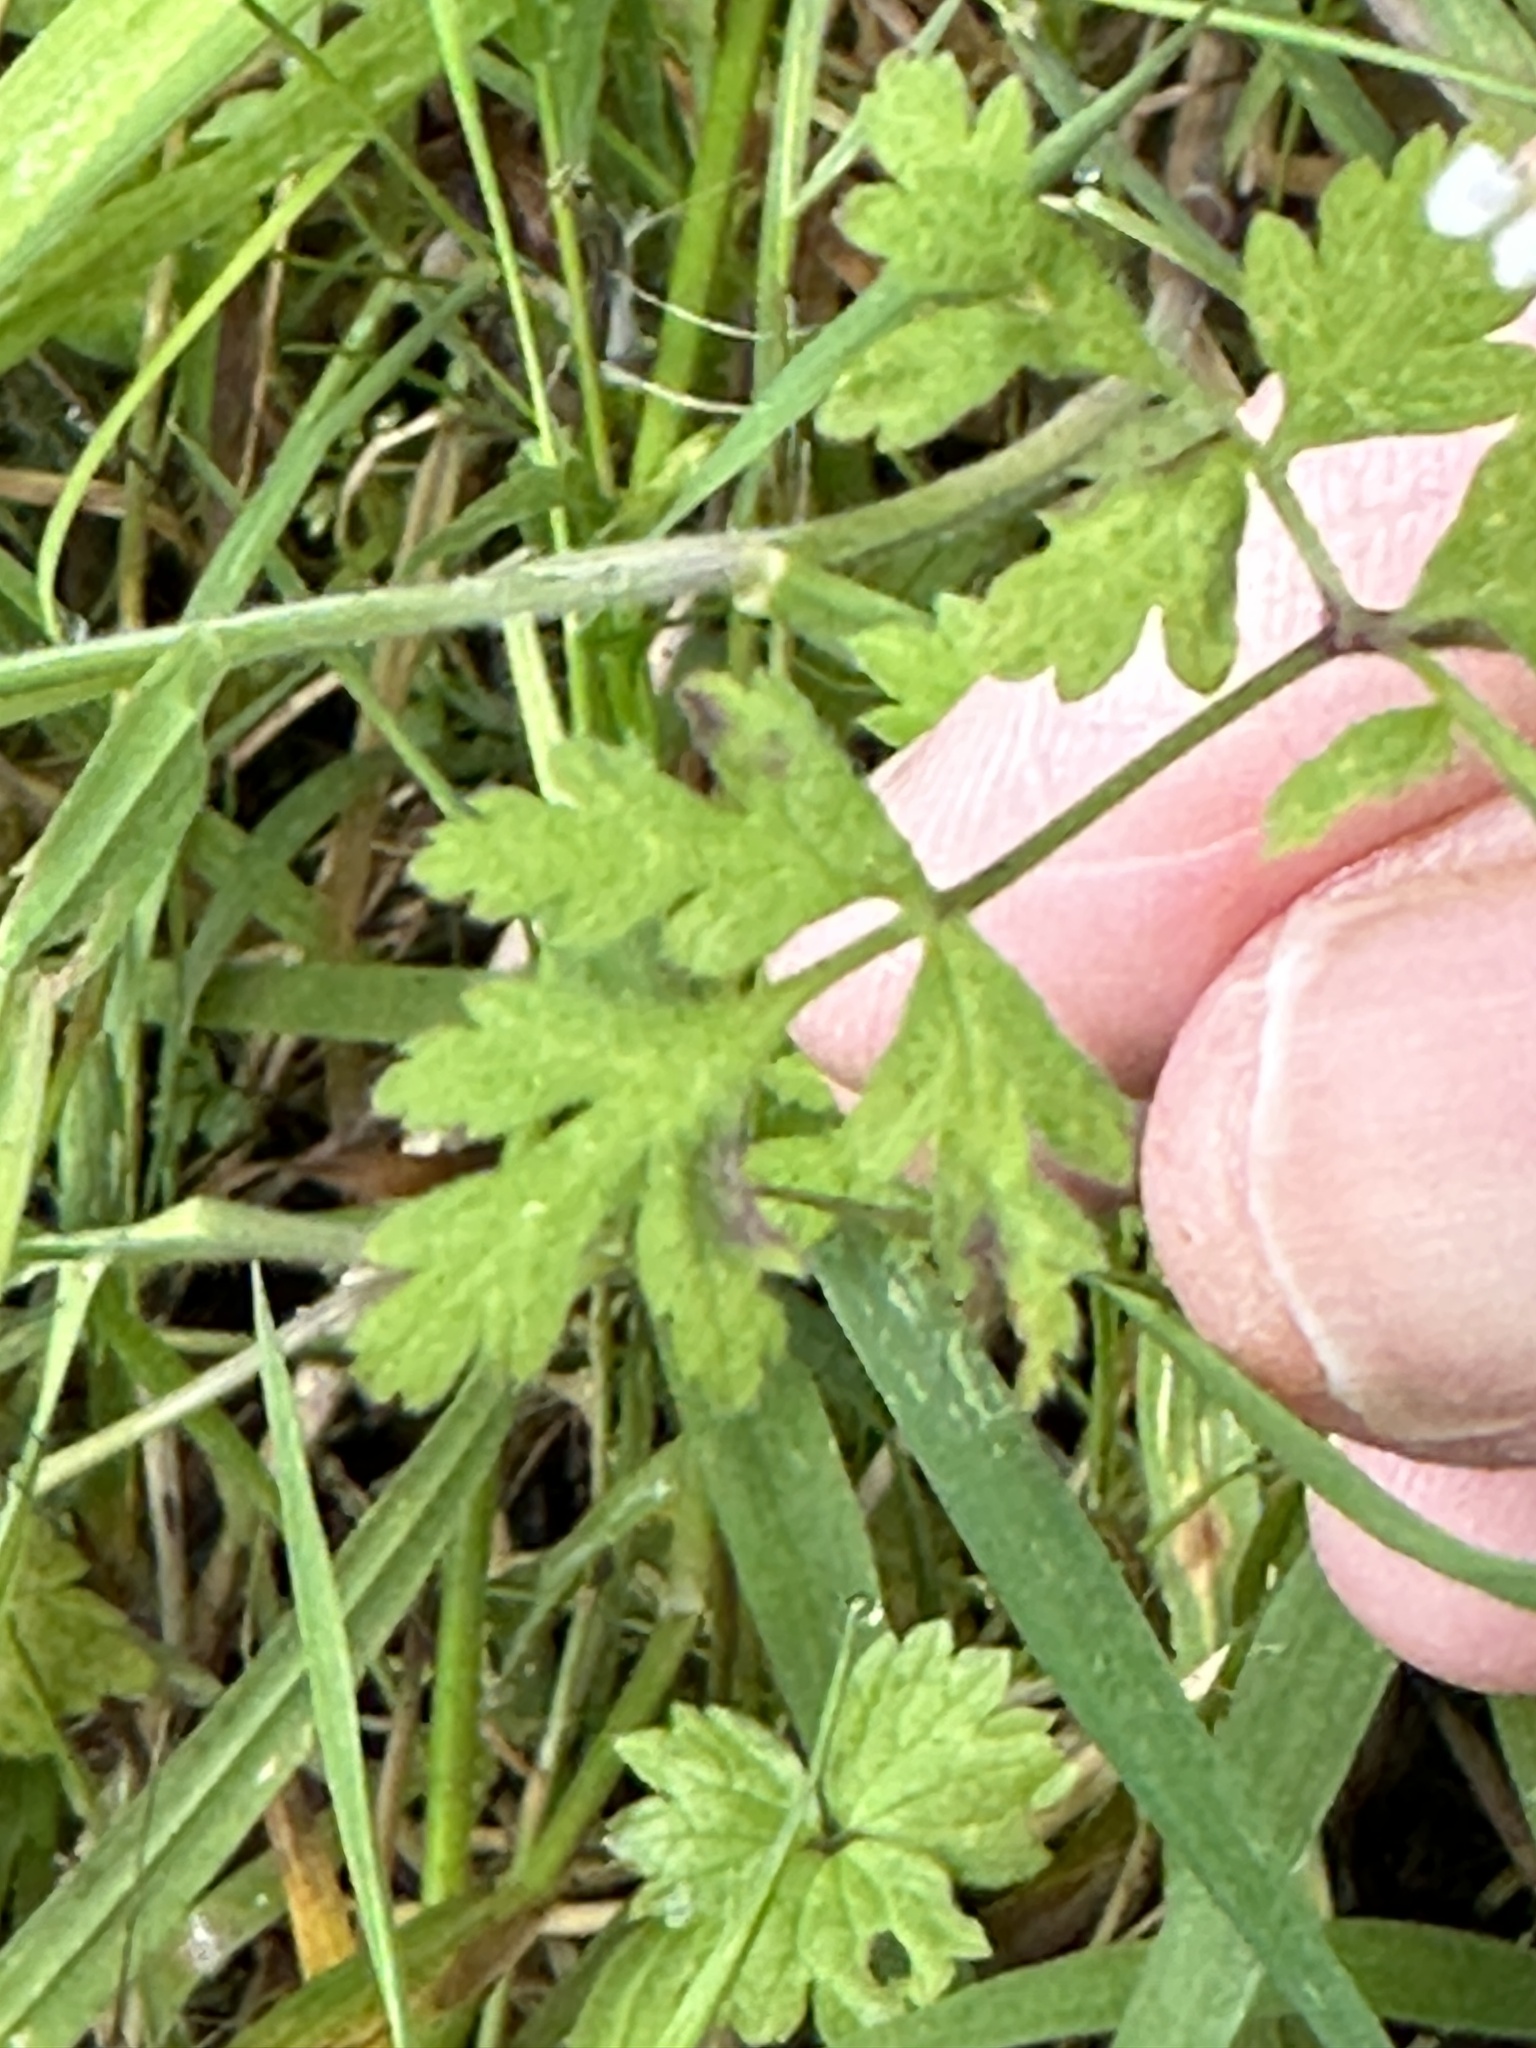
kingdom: Plantae
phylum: Tracheophyta
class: Magnoliopsida
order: Apiales
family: Apiaceae
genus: Chaerophyllum
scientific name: Chaerophyllum temulum
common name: Rough chervil
